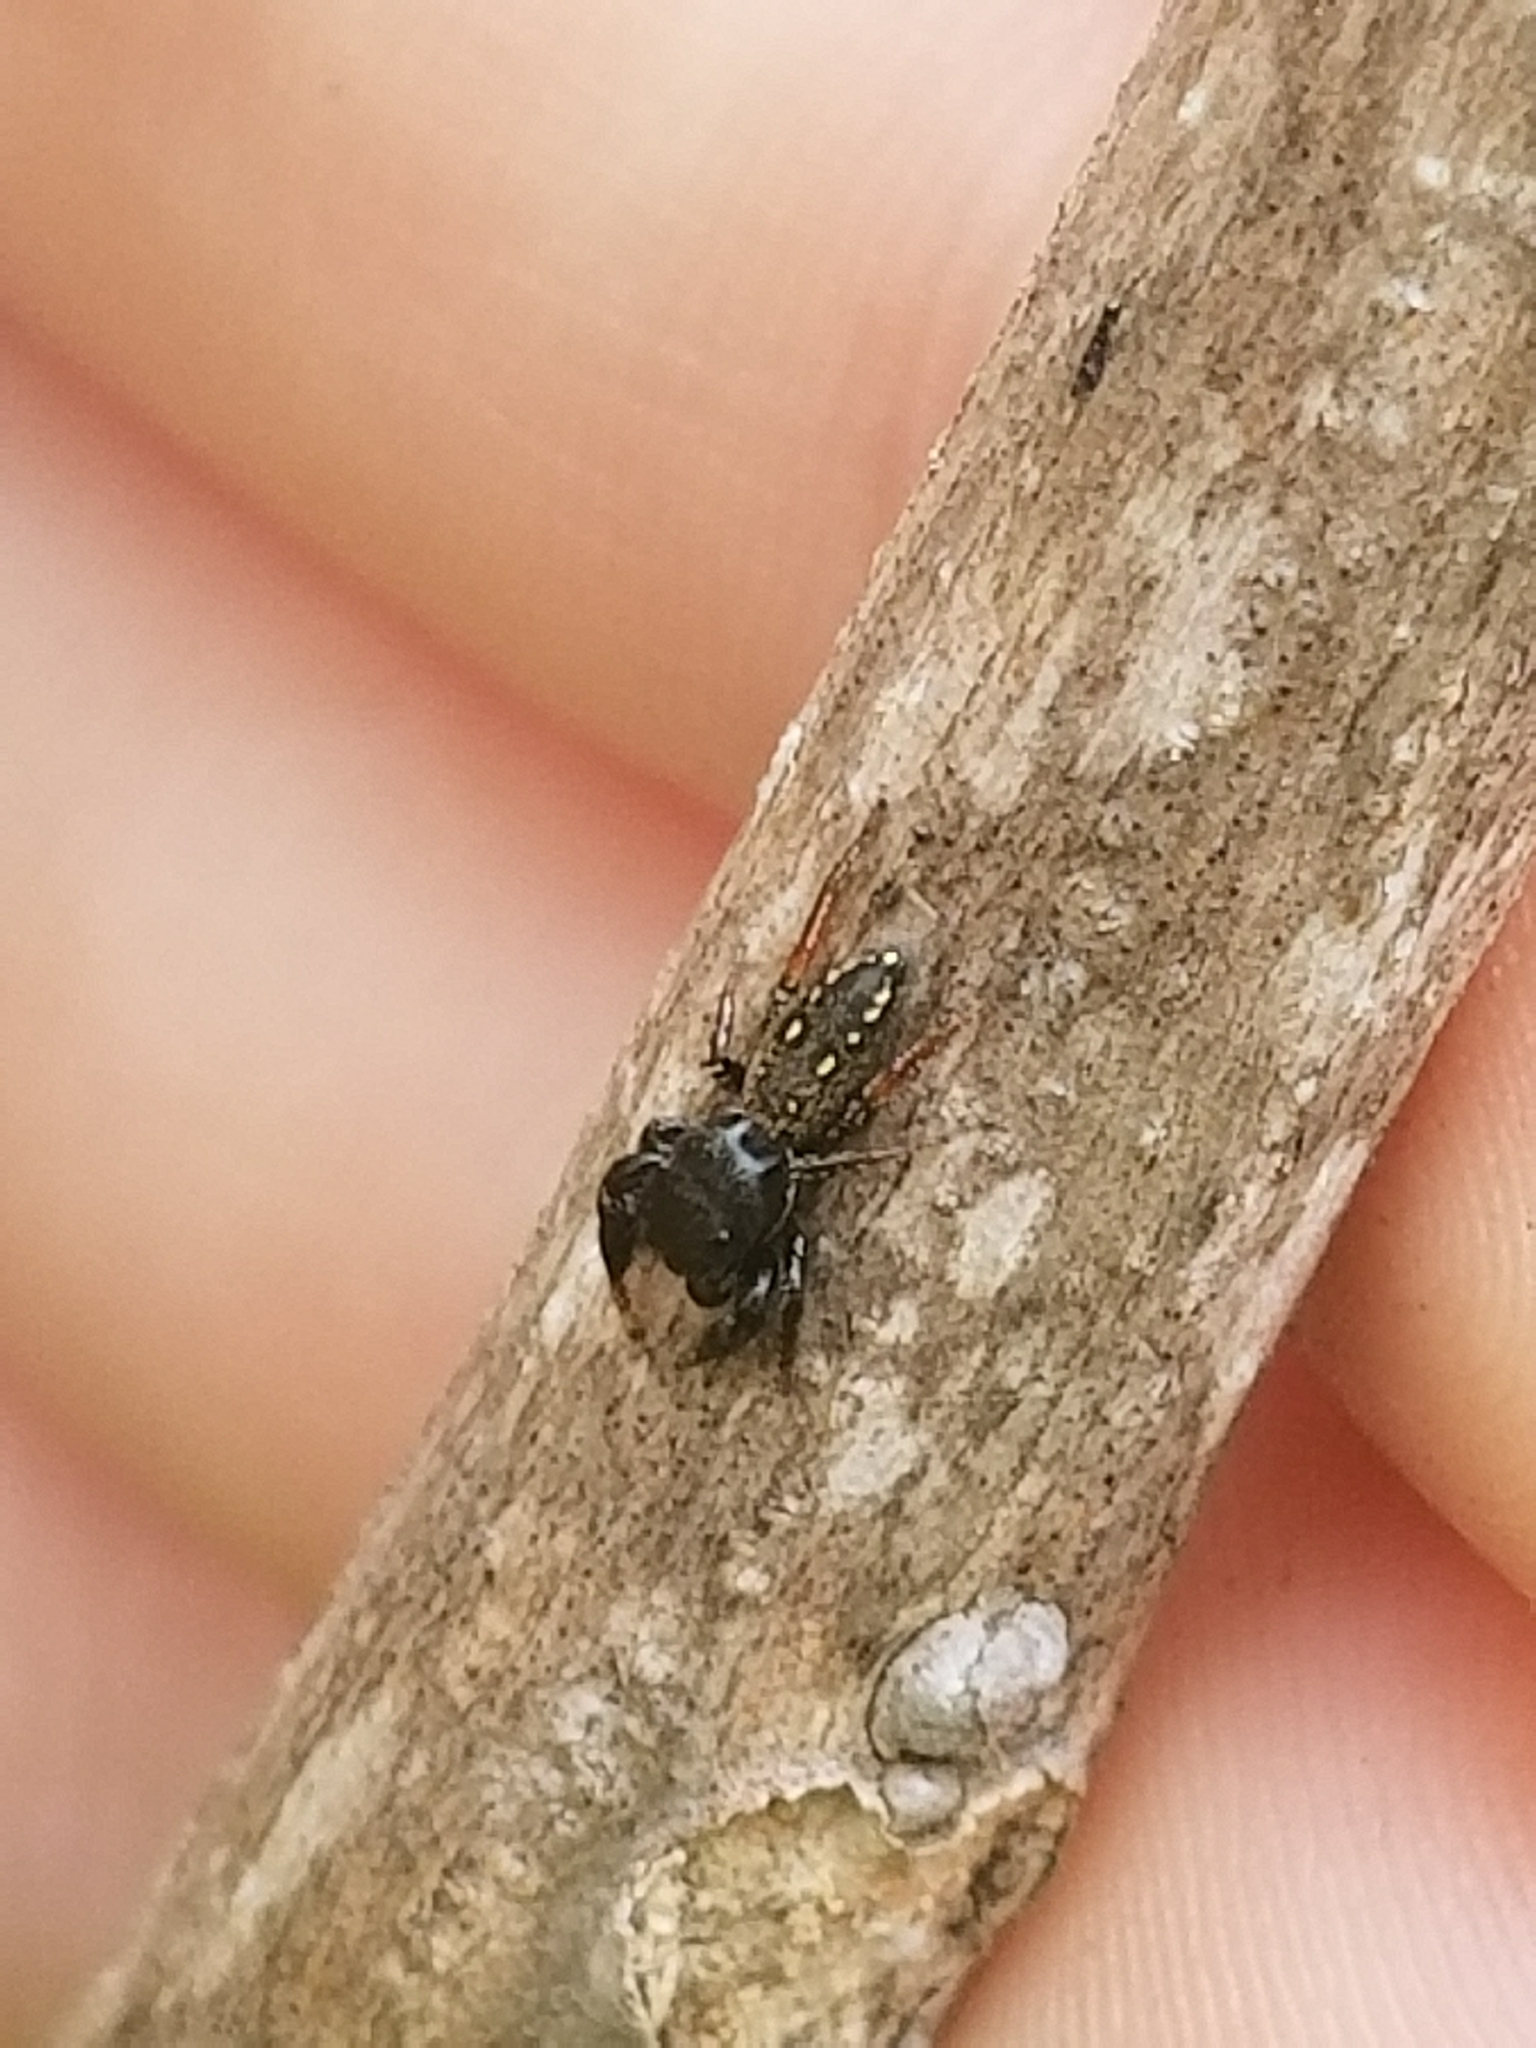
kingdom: Animalia
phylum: Arthropoda
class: Arachnida
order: Araneae
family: Salticidae
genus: Metacyrba
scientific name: Metacyrba taeniola
